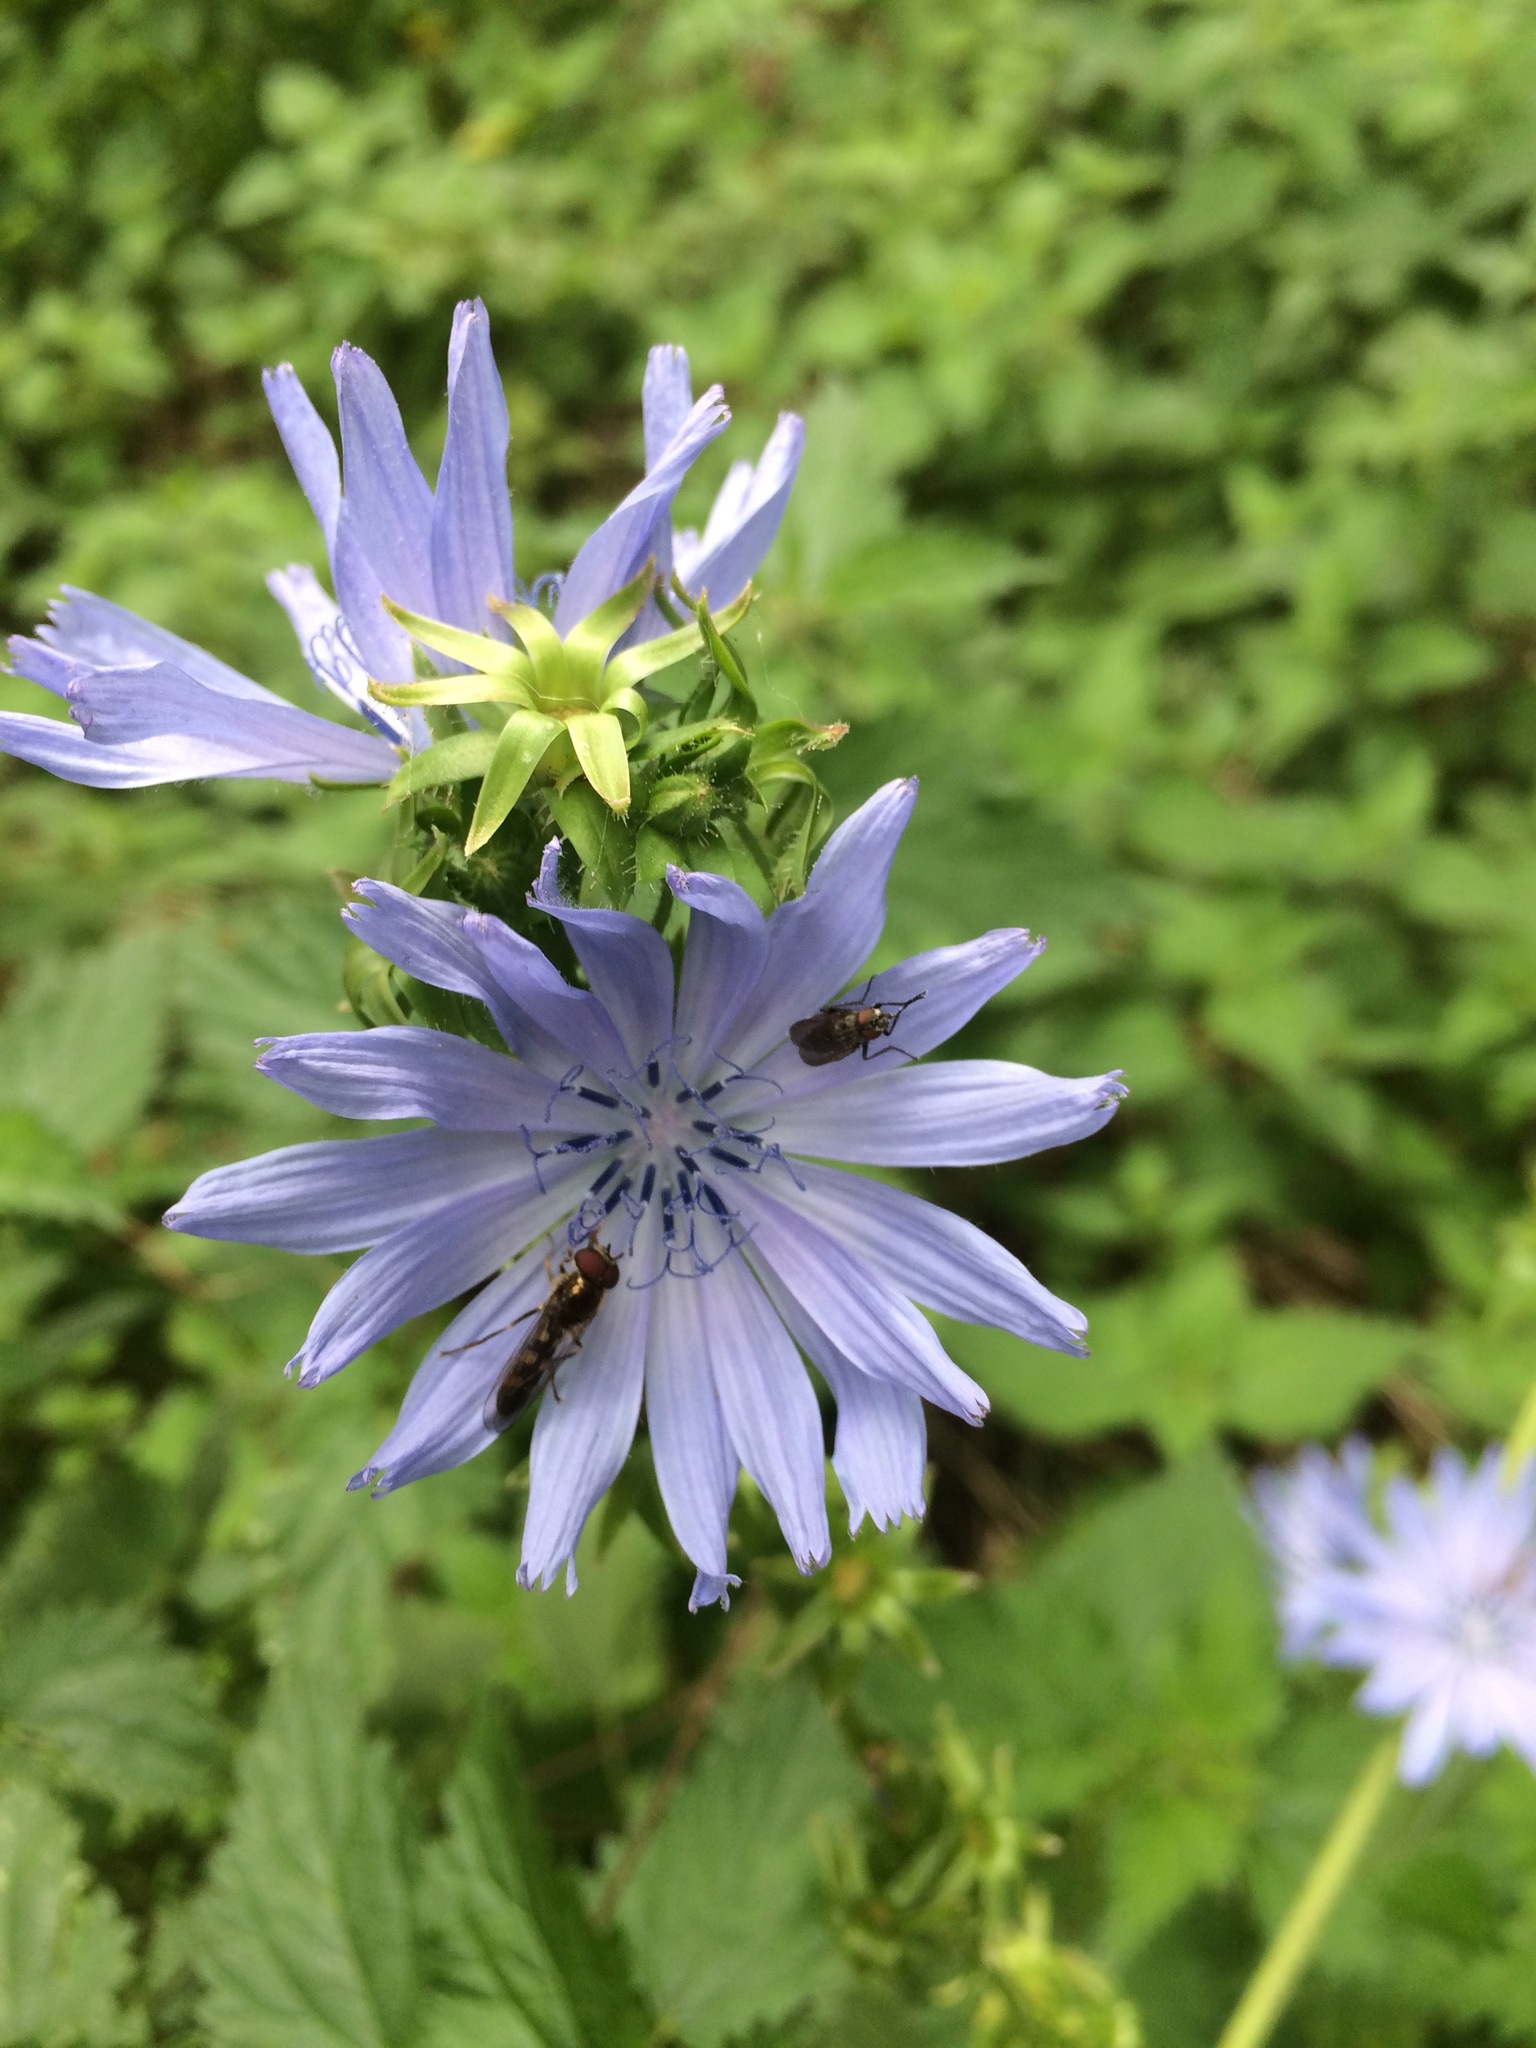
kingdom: Plantae
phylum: Tracheophyta
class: Magnoliopsida
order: Asterales
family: Asteraceae
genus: Cichorium
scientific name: Cichorium intybus
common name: Chicory
